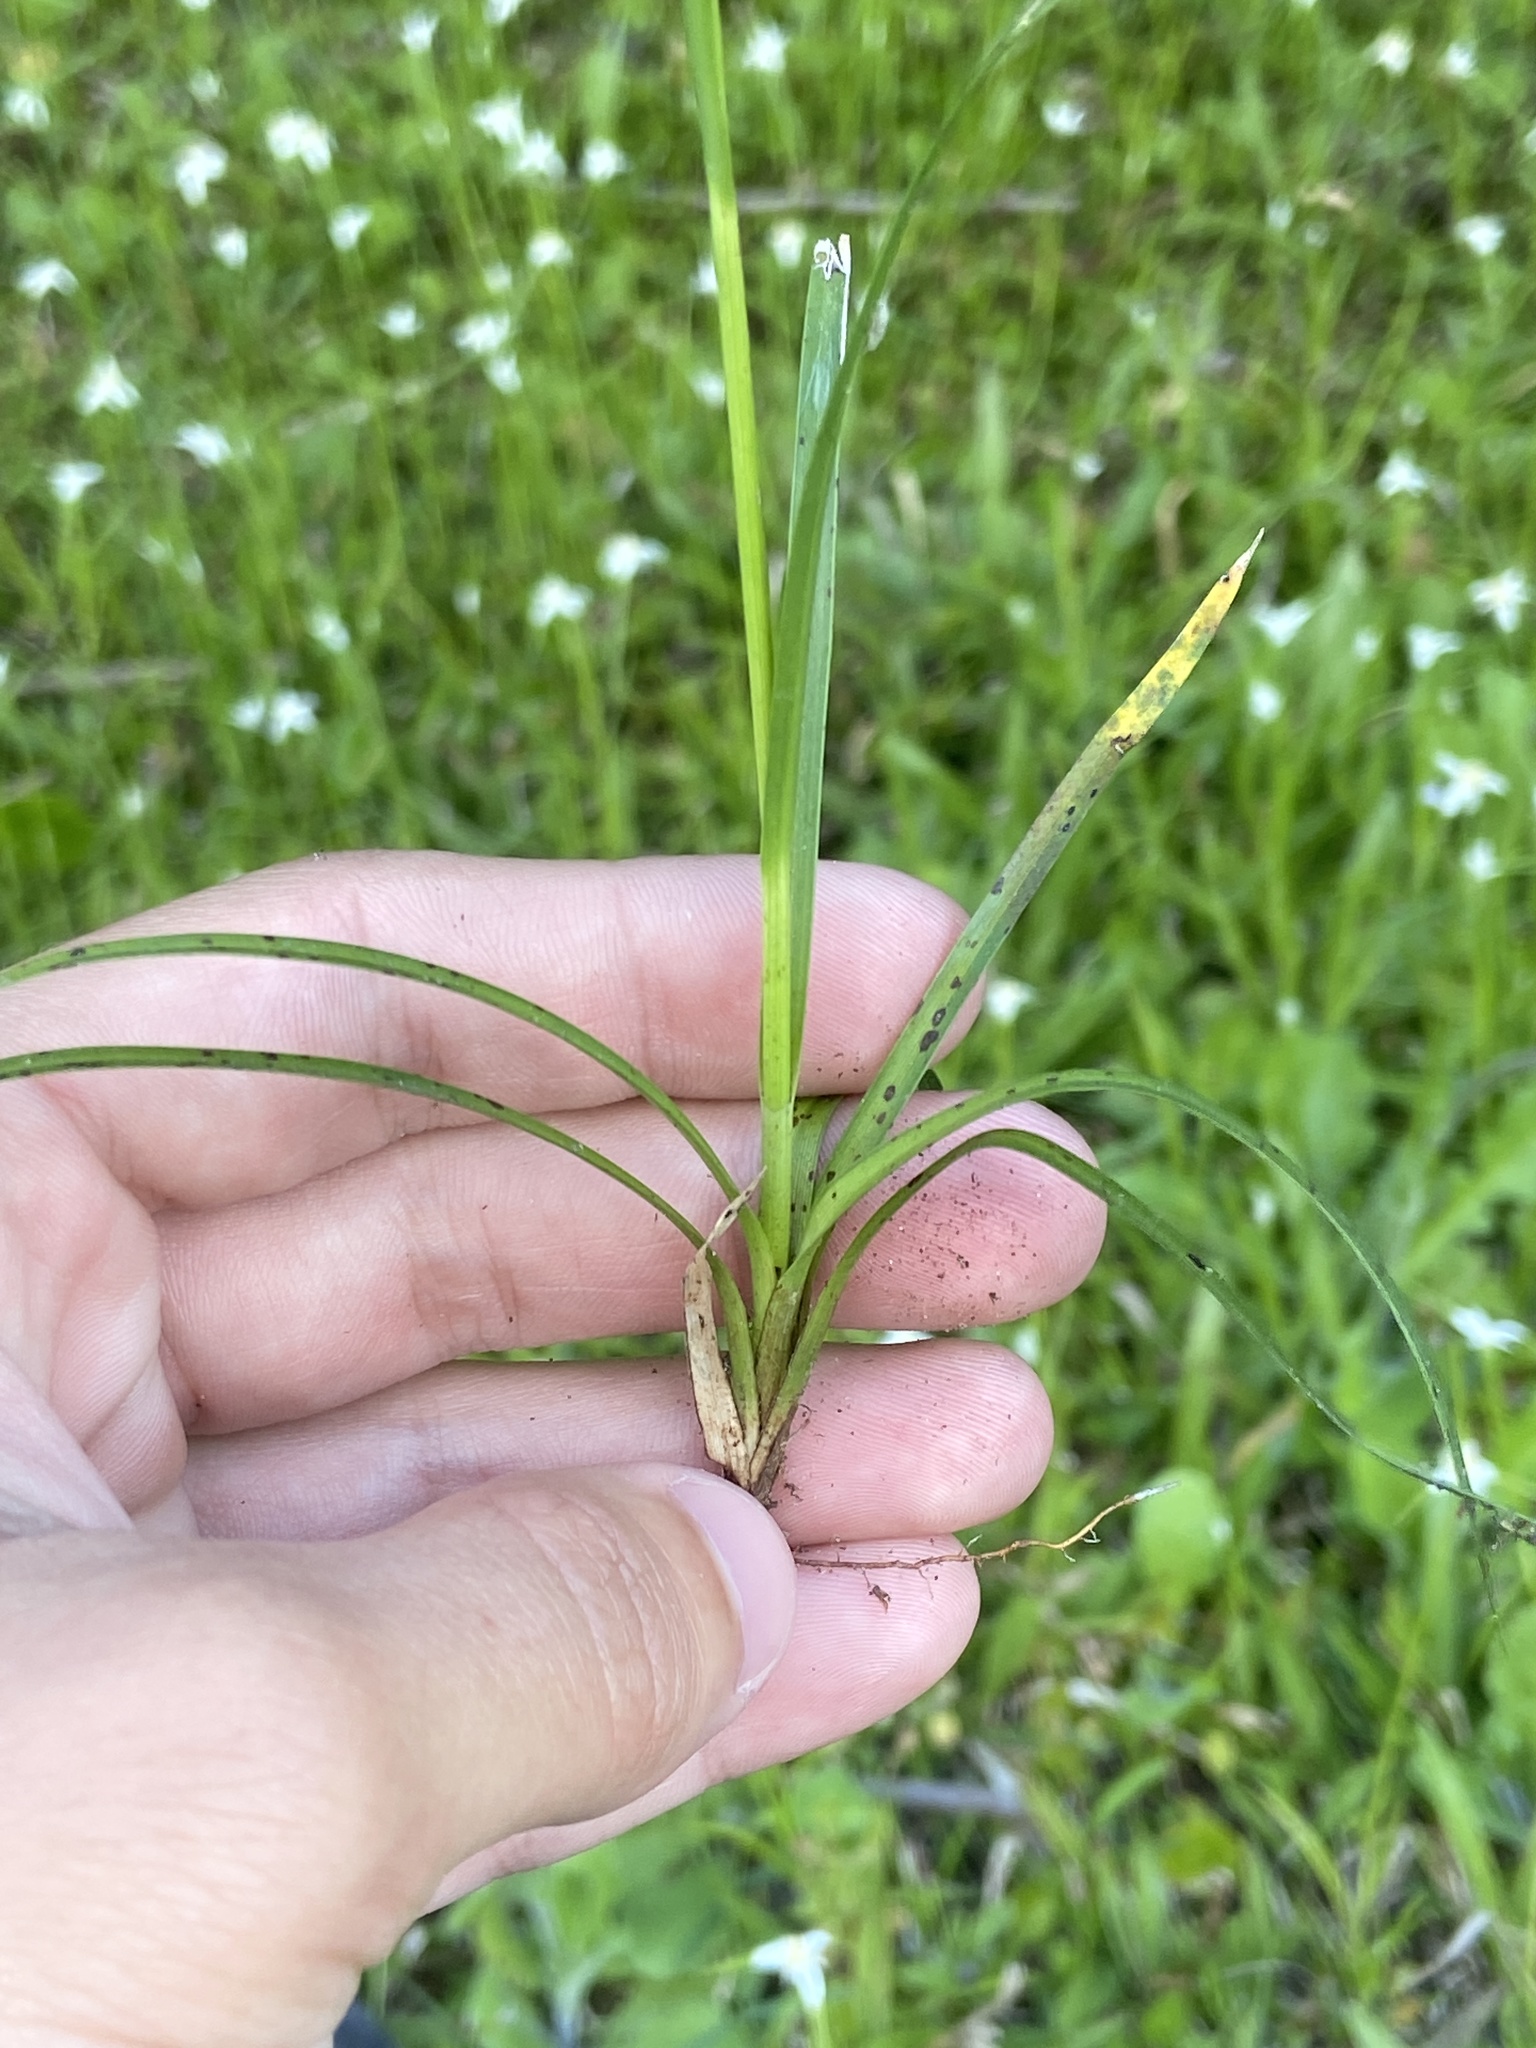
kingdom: Plantae
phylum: Tracheophyta
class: Liliopsida
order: Poales
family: Cyperaceae
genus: Rhynchospora
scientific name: Rhynchospora colorata
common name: Star sedge
